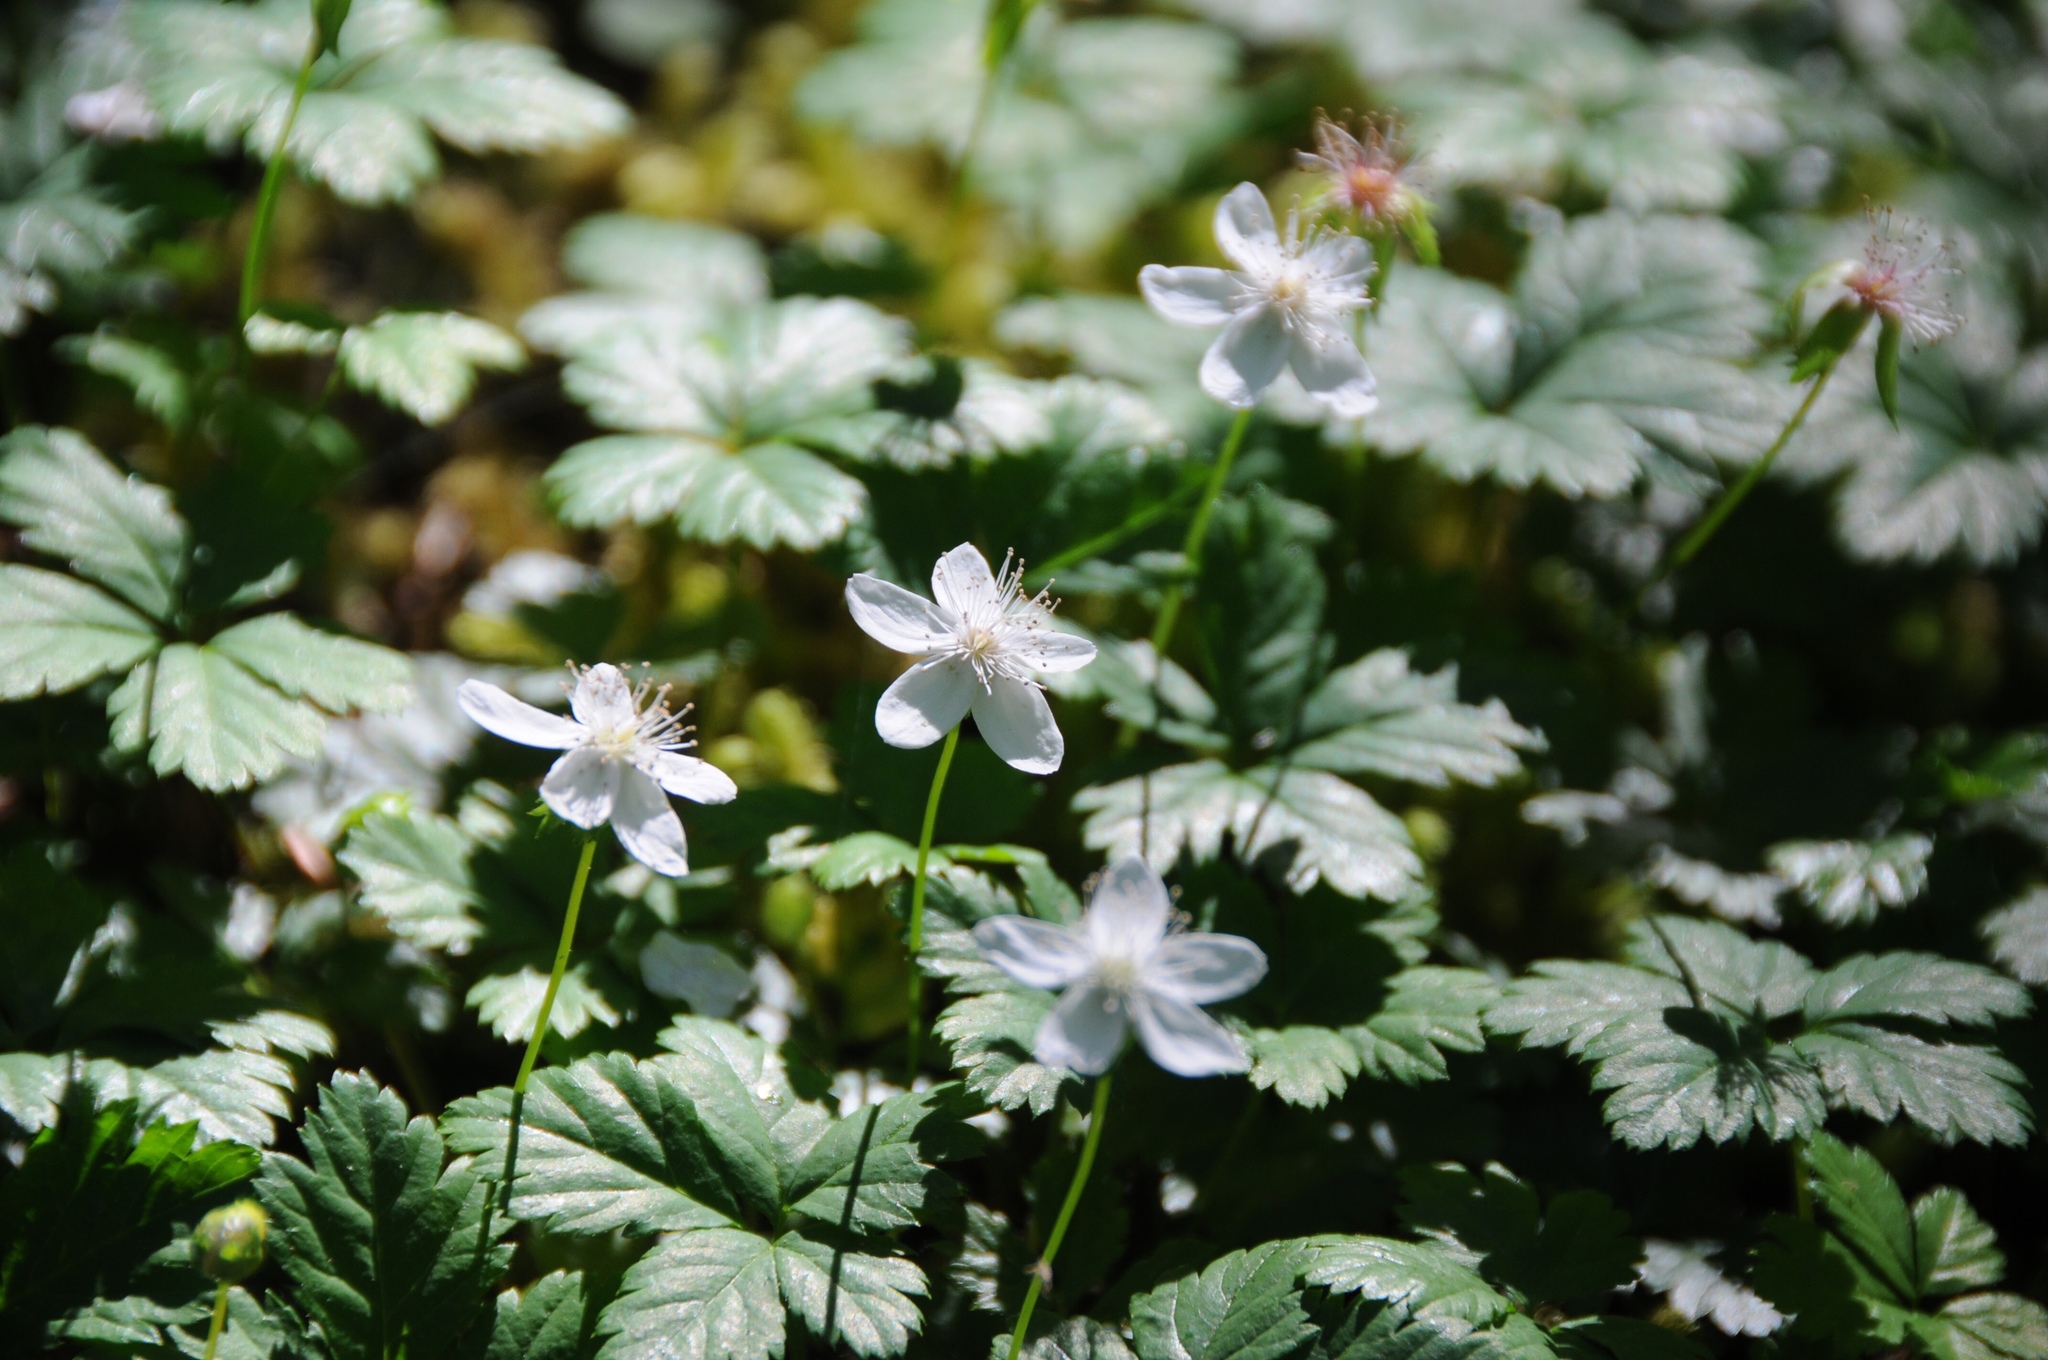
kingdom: Plantae
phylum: Tracheophyta
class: Magnoliopsida
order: Rosales
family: Rosaceae
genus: Rubus
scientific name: Rubus pedatus
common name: Creeping raspberry
